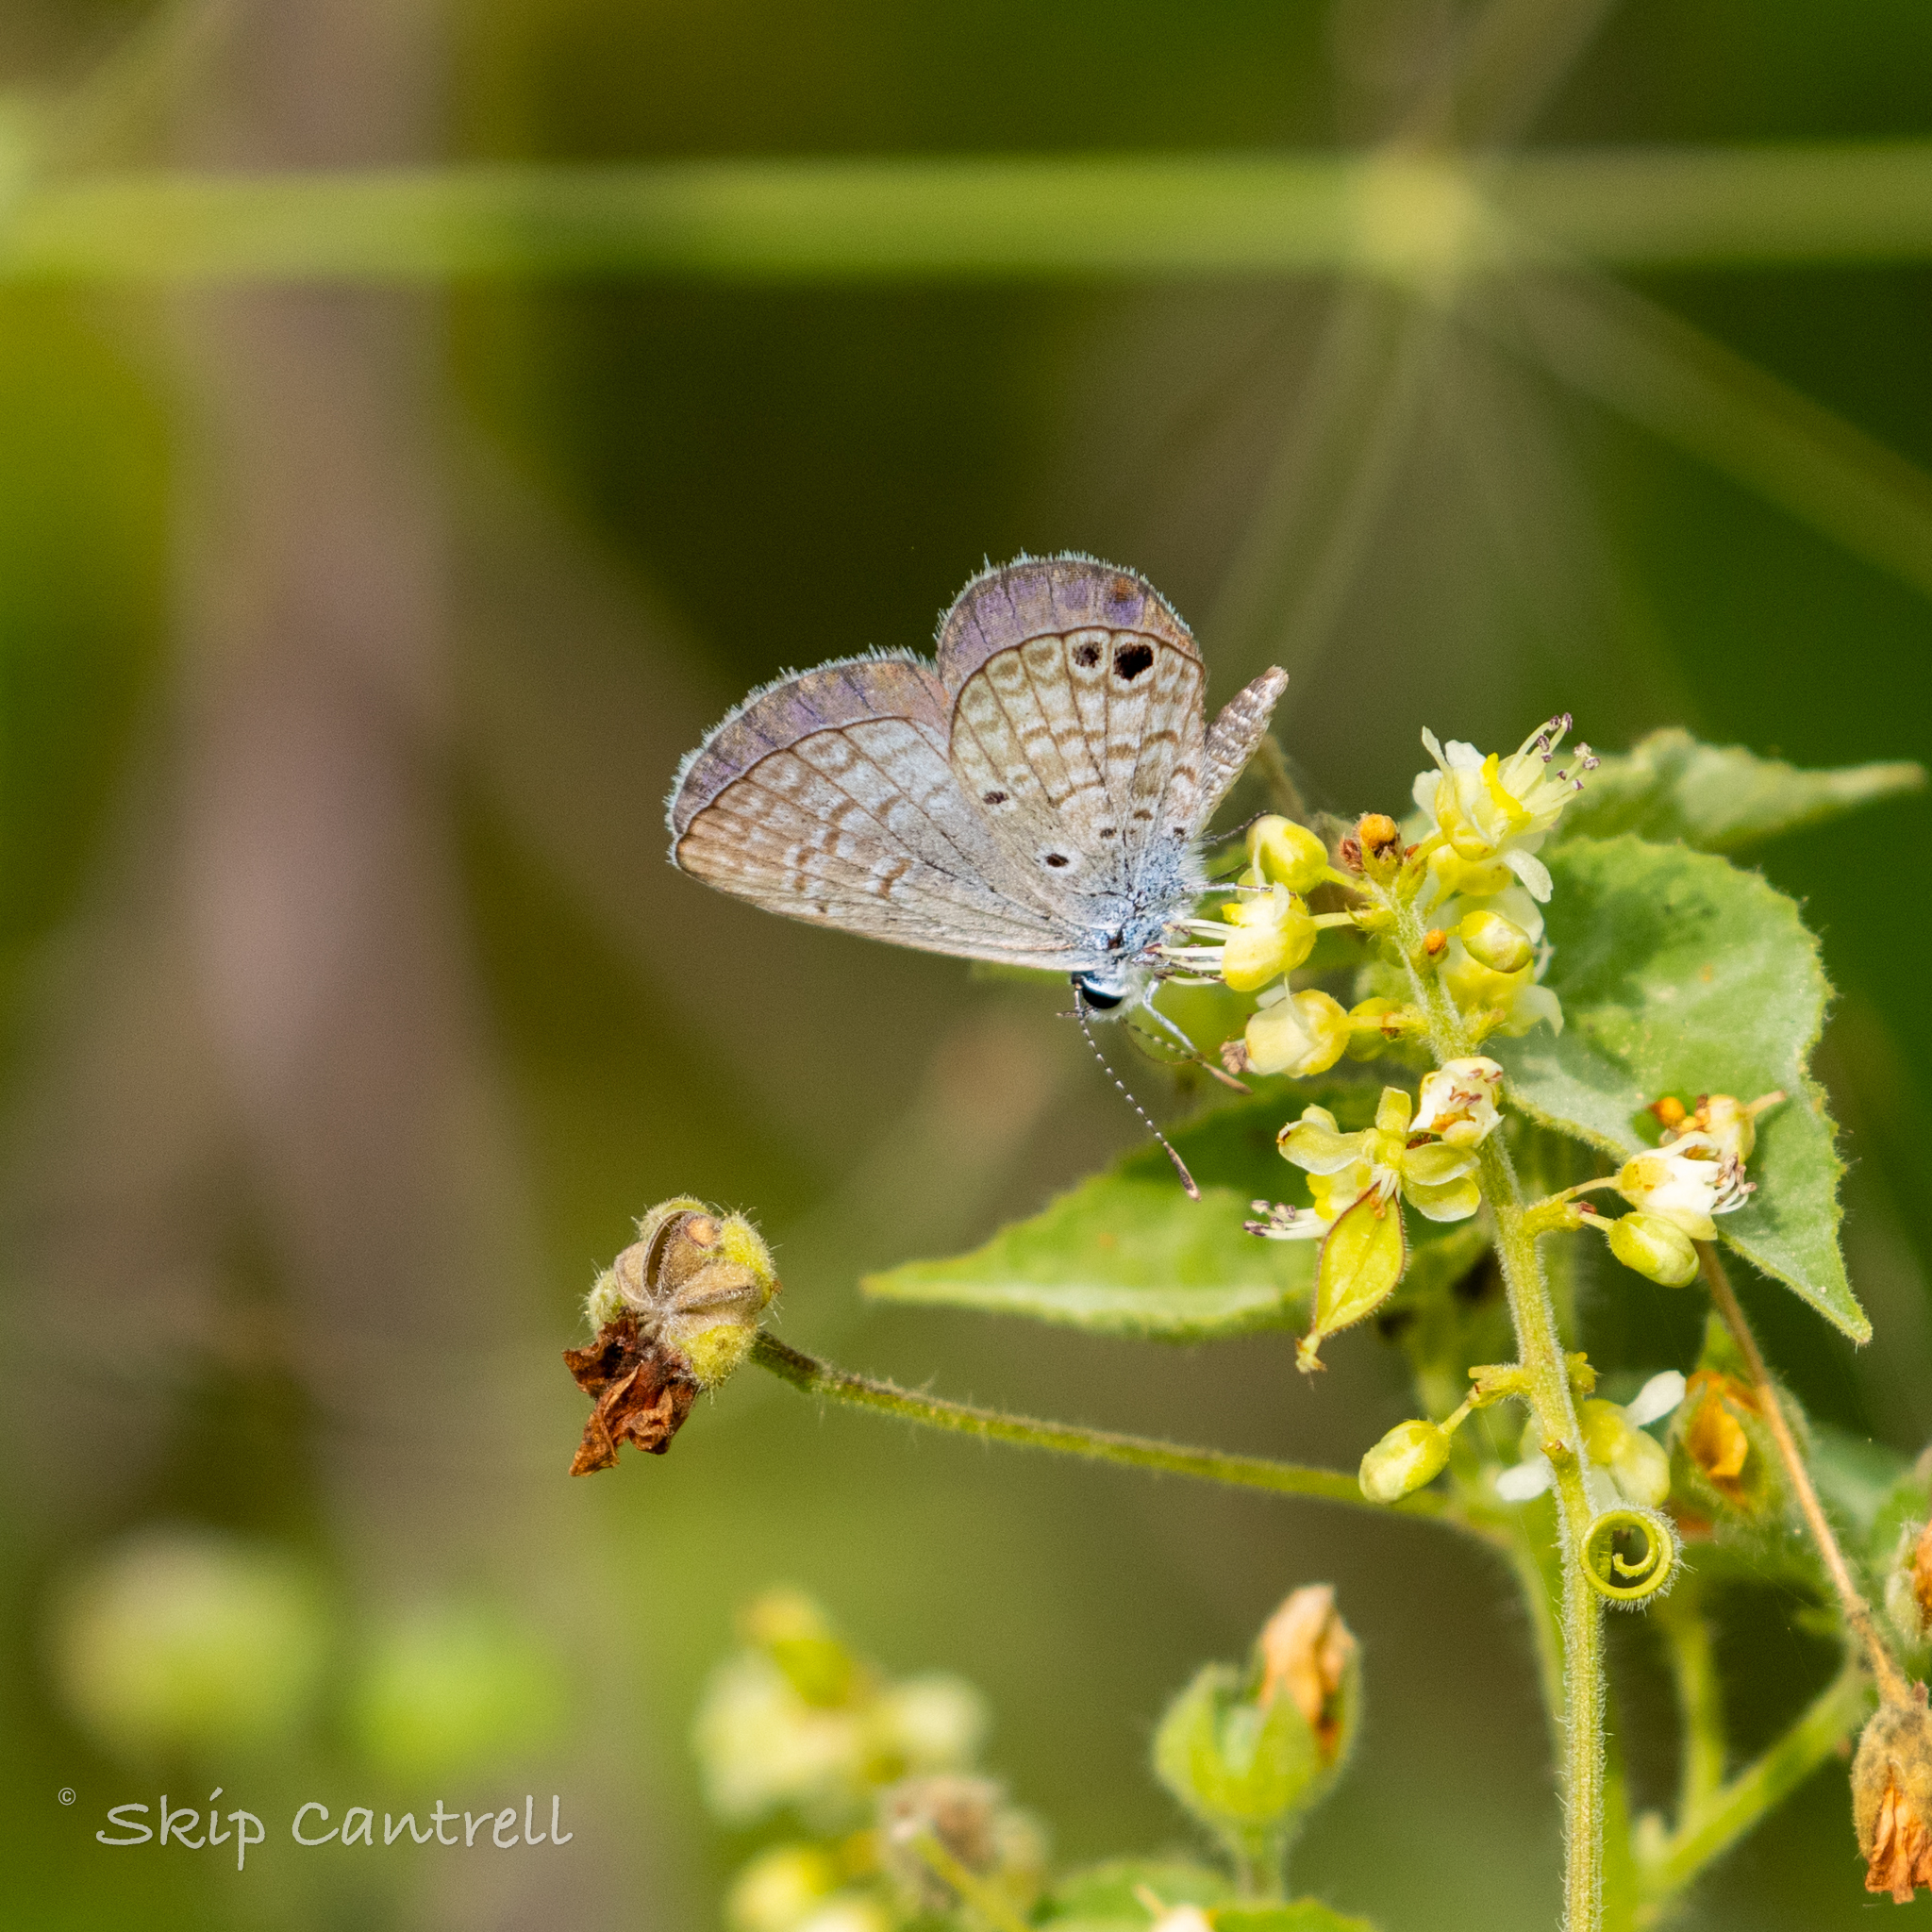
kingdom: Animalia
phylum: Arthropoda
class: Insecta
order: Lepidoptera
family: Lycaenidae
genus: Hemiargus
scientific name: Hemiargus ceraunus
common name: Ceraunus blue
